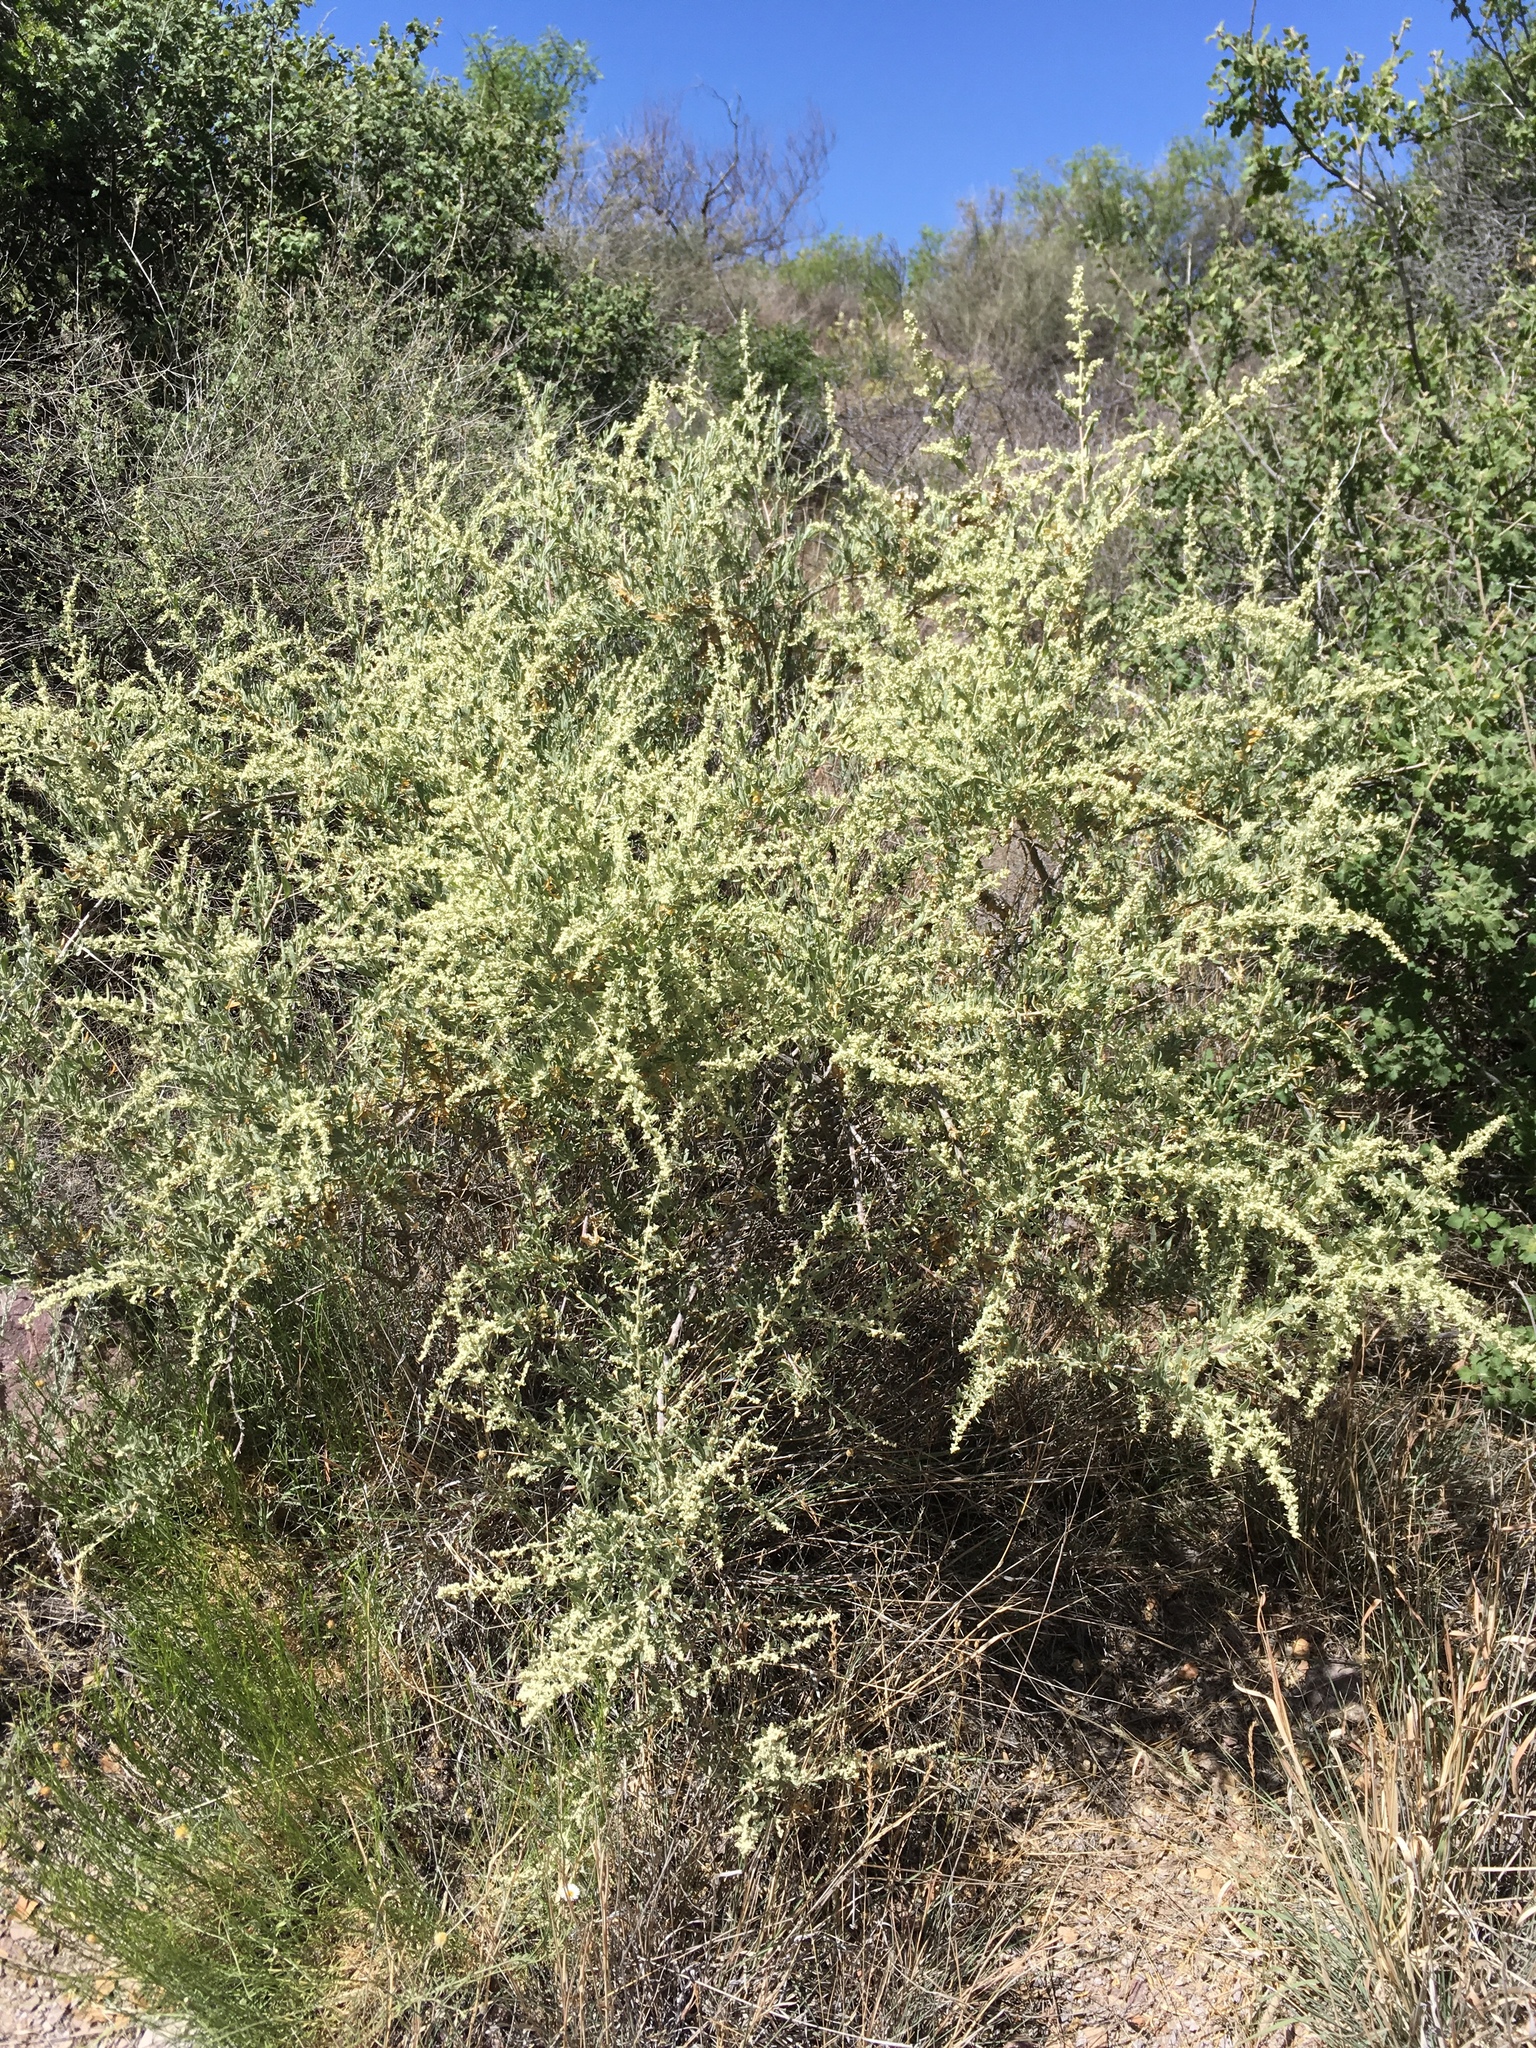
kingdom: Plantae
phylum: Tracheophyta
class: Magnoliopsida
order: Caryophyllales
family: Amaranthaceae
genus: Atriplex
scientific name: Atriplex canescens
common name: Four-wing saltbush
